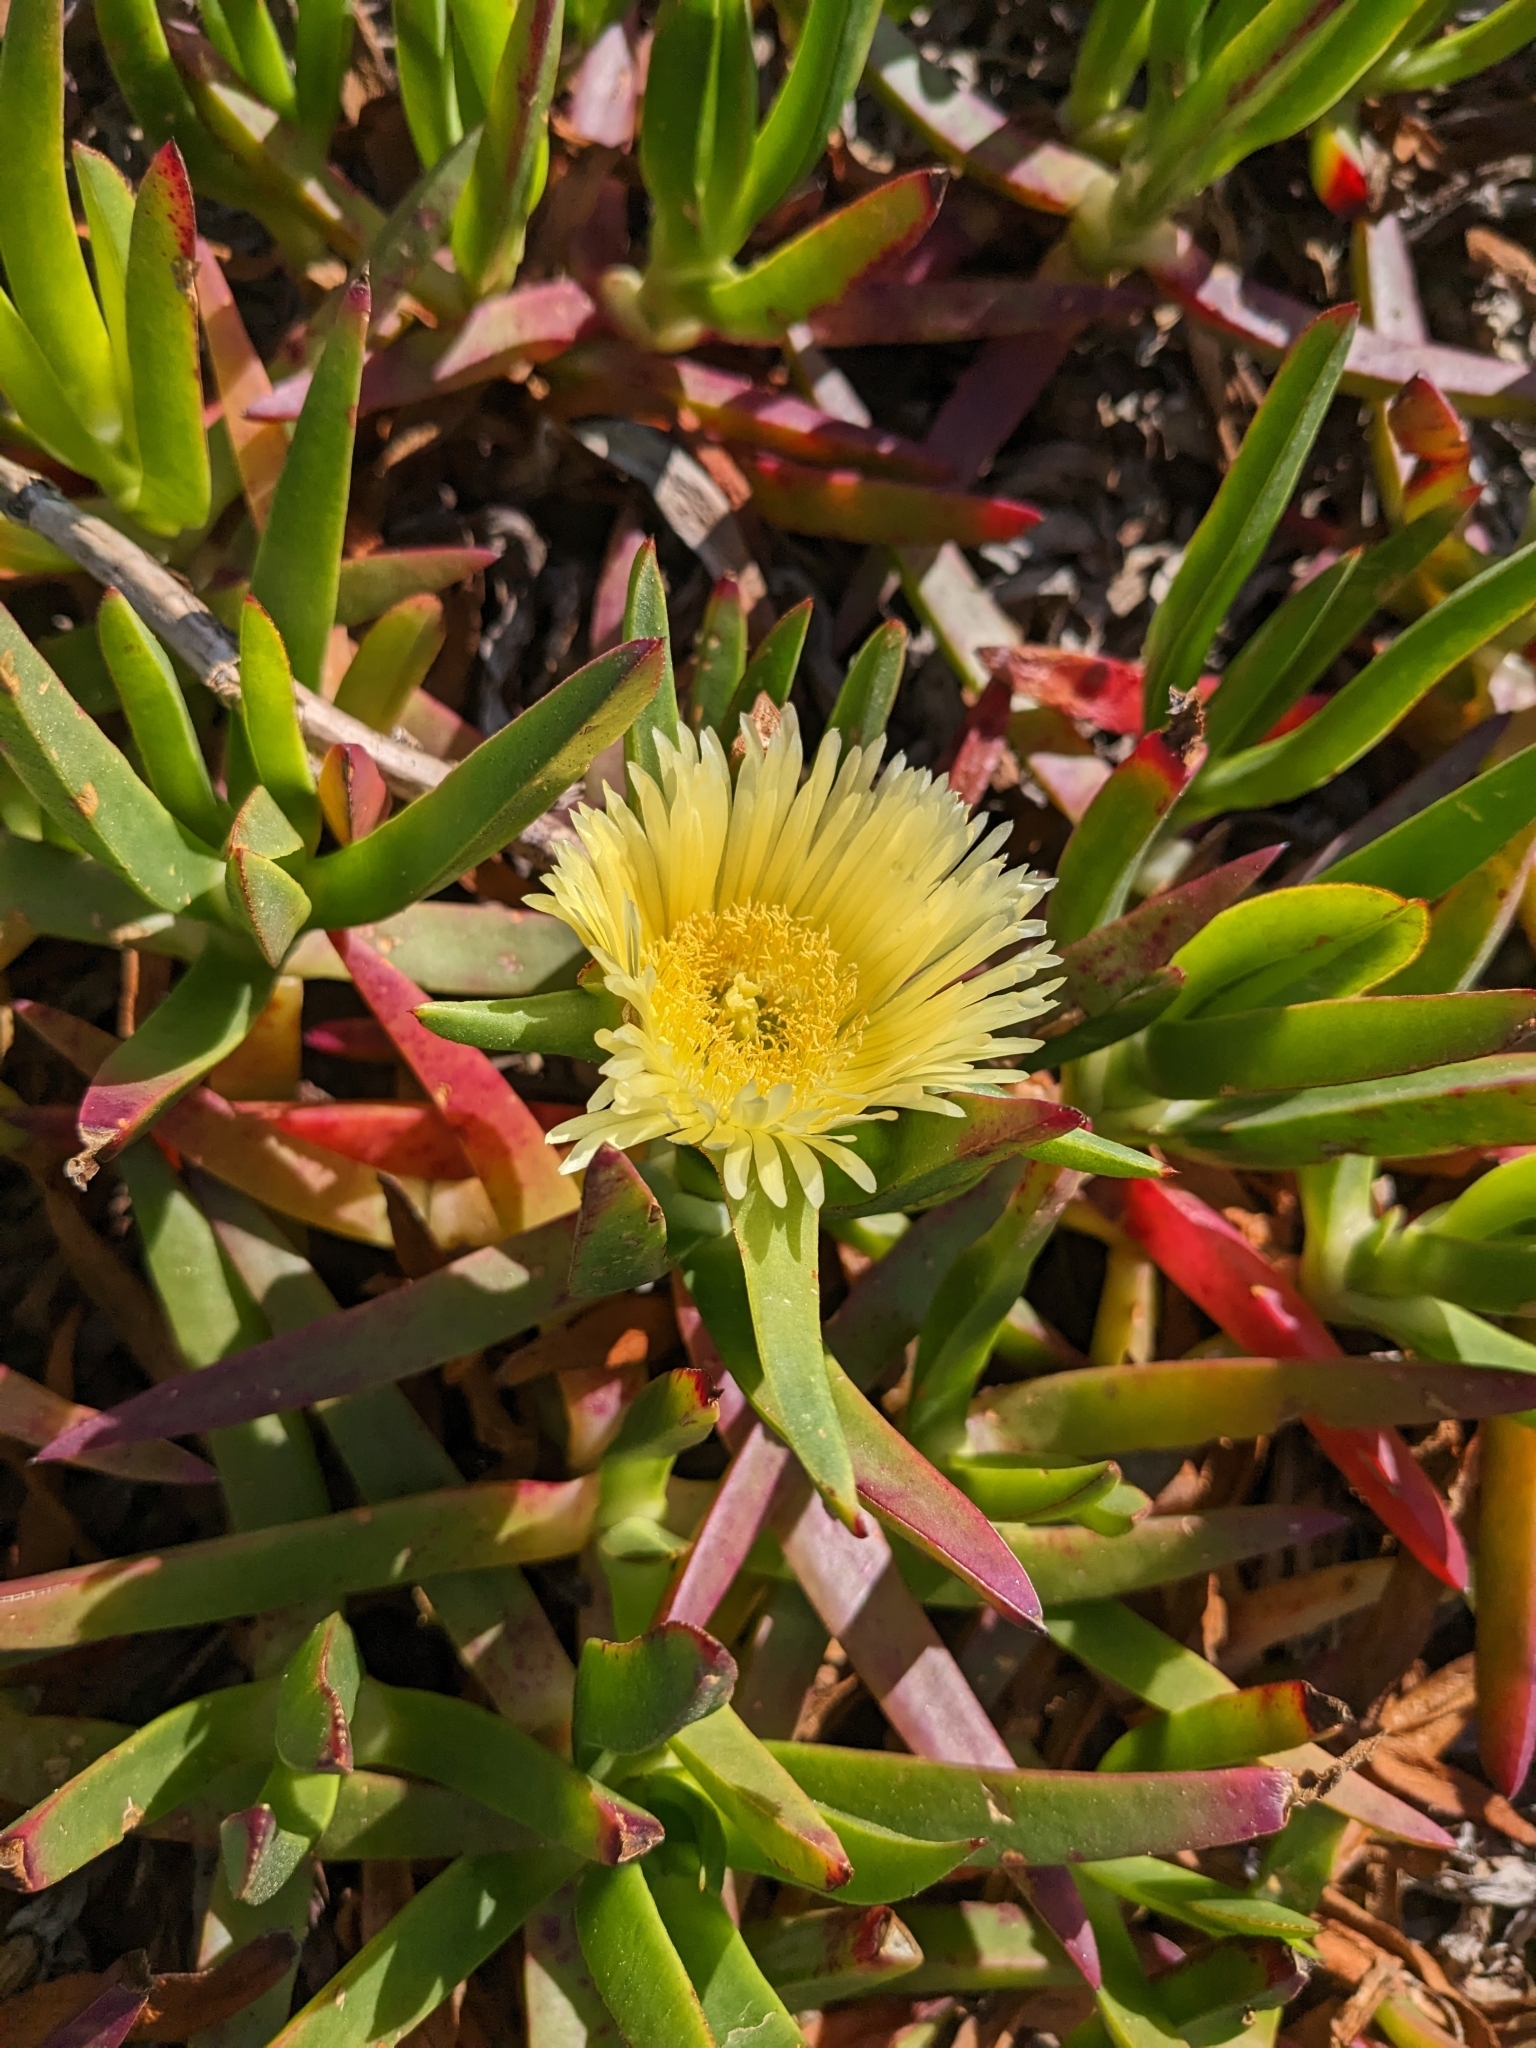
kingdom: Plantae
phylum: Tracheophyta
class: Magnoliopsida
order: Caryophyllales
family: Aizoaceae
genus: Carpobrotus
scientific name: Carpobrotus edulis
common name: Hottentot-fig
